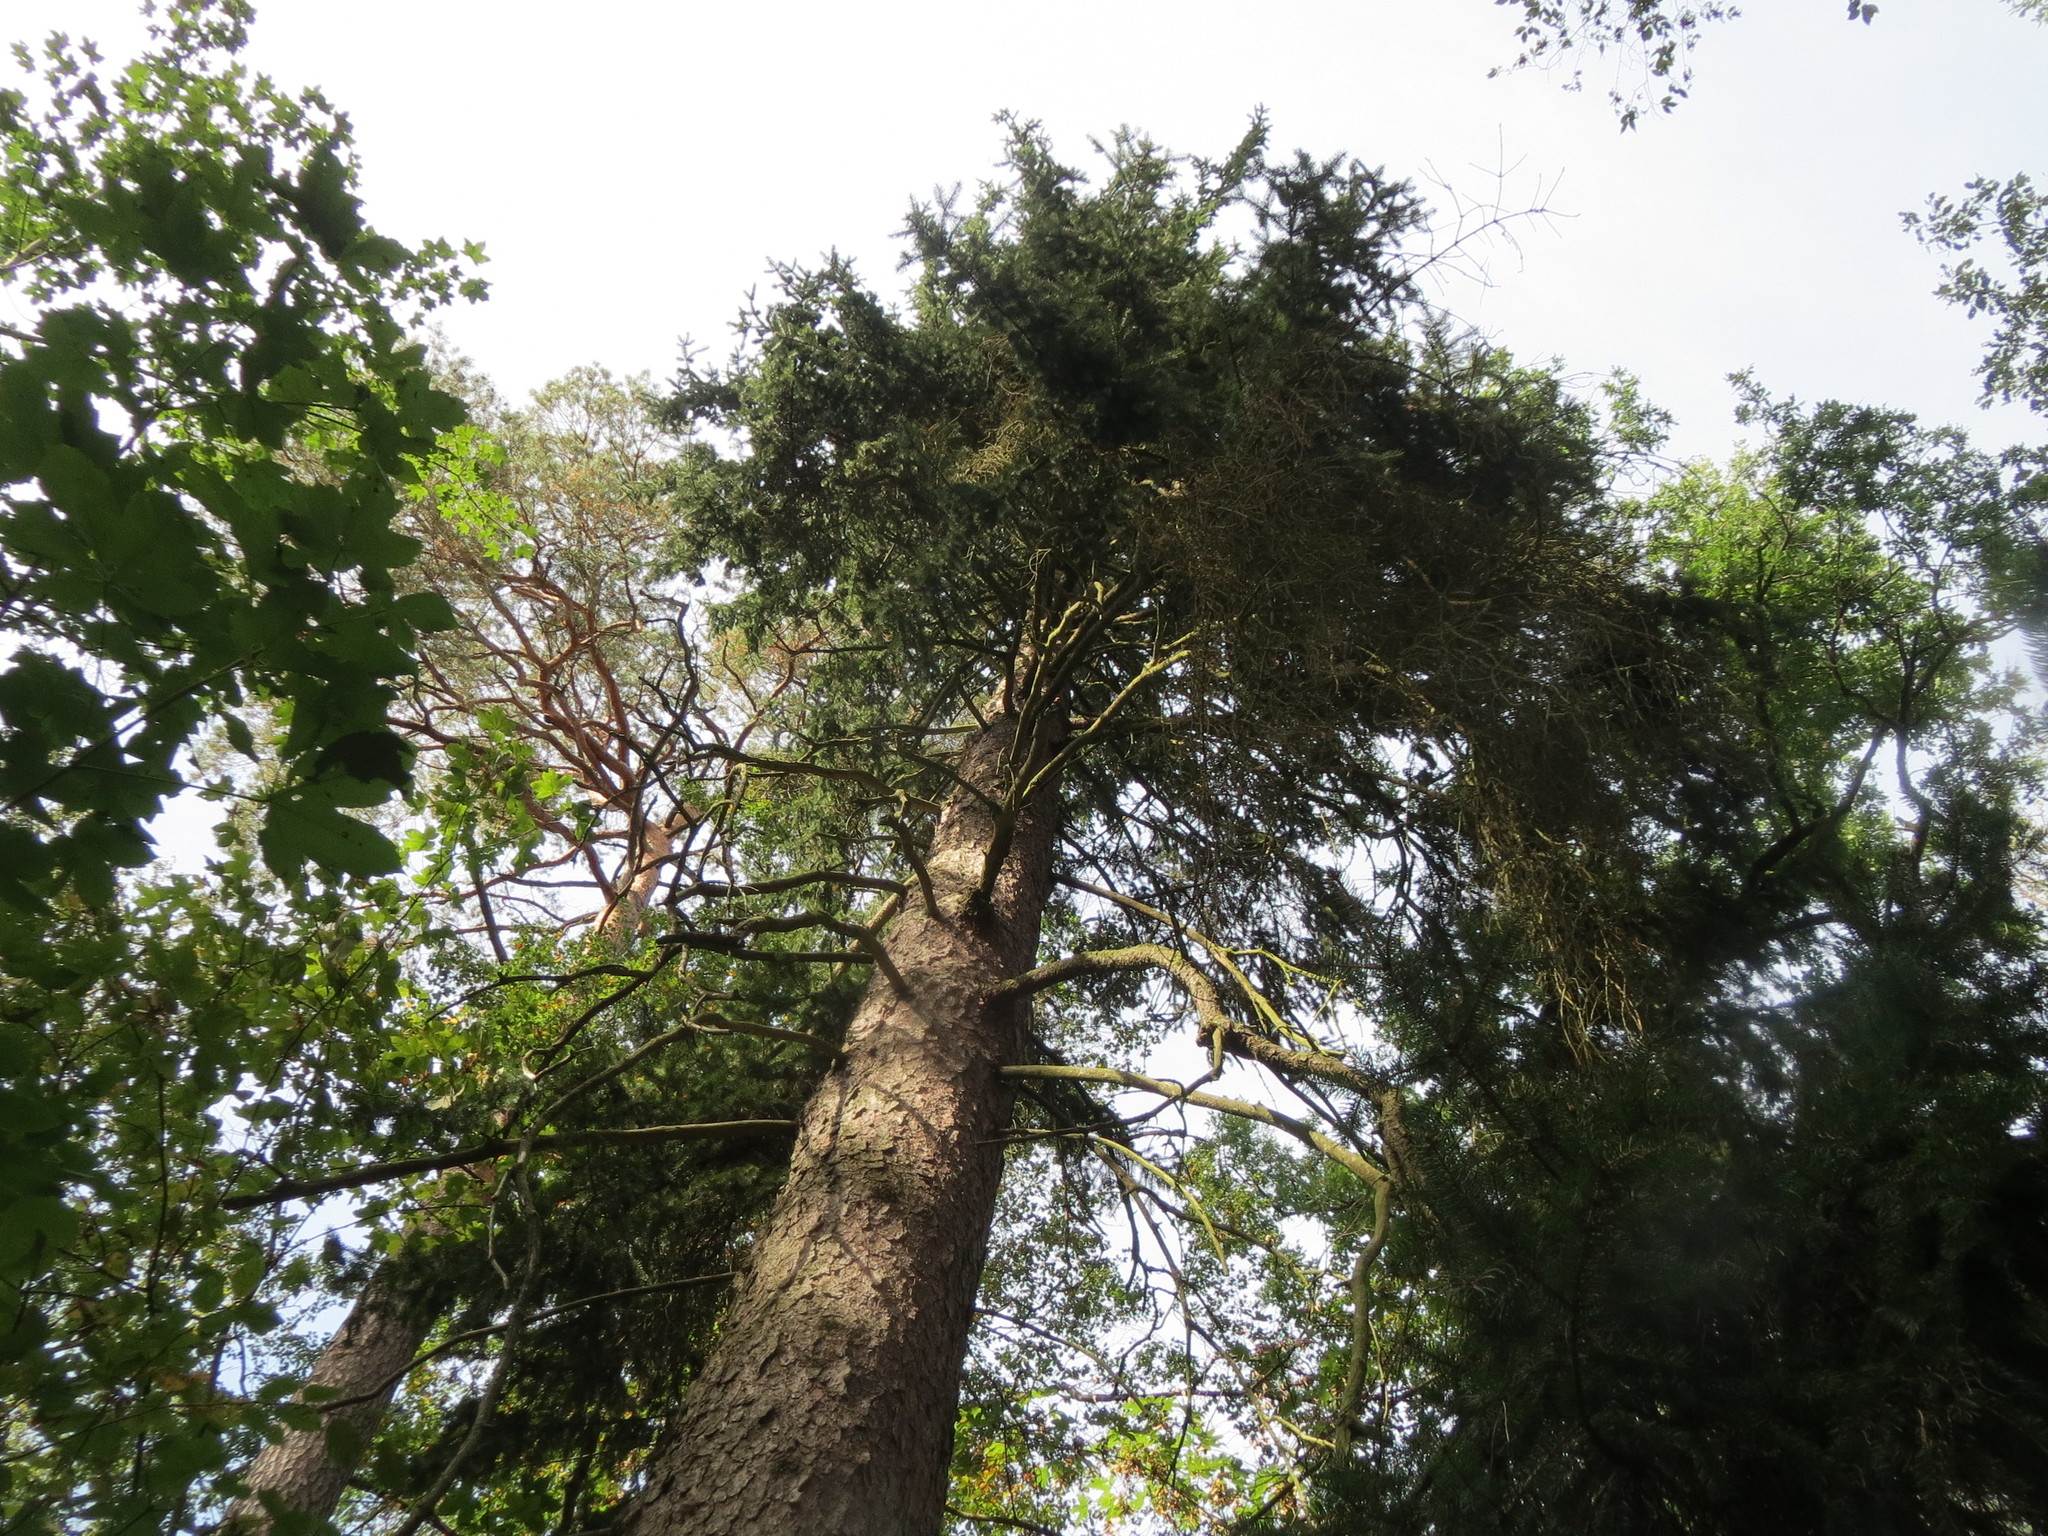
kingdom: Plantae
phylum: Tracheophyta
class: Pinopsida
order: Pinales
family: Pinaceae
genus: Picea
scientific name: Picea abies
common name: Norway spruce
